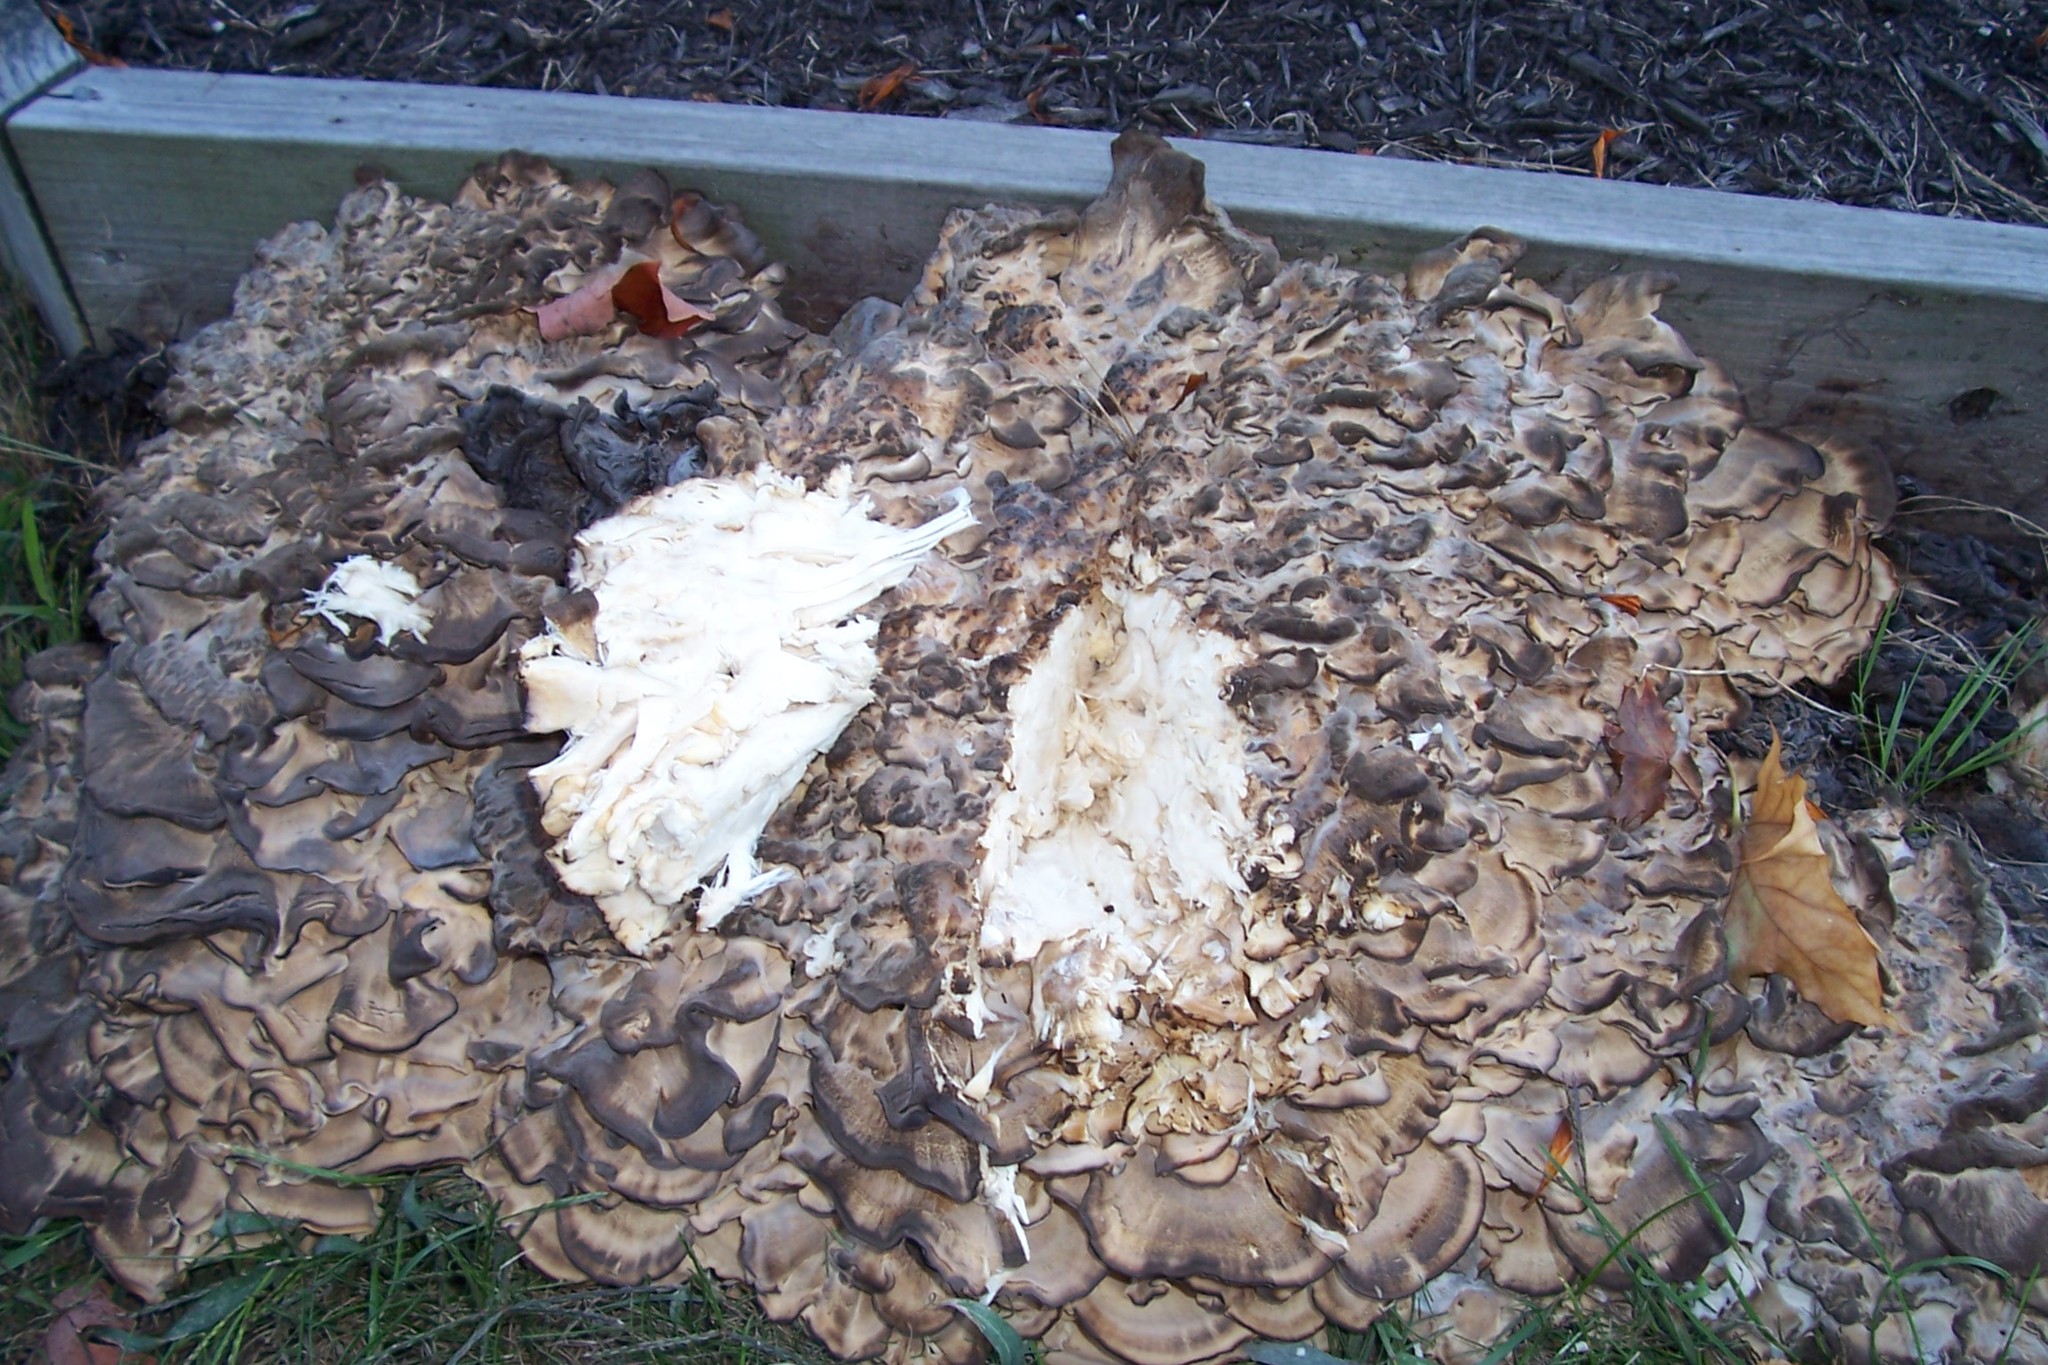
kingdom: Fungi
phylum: Basidiomycota
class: Agaricomycetes
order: Polyporales
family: Meripilaceae
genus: Meripilus
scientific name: Meripilus sumstinei
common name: Black-staining polypore
